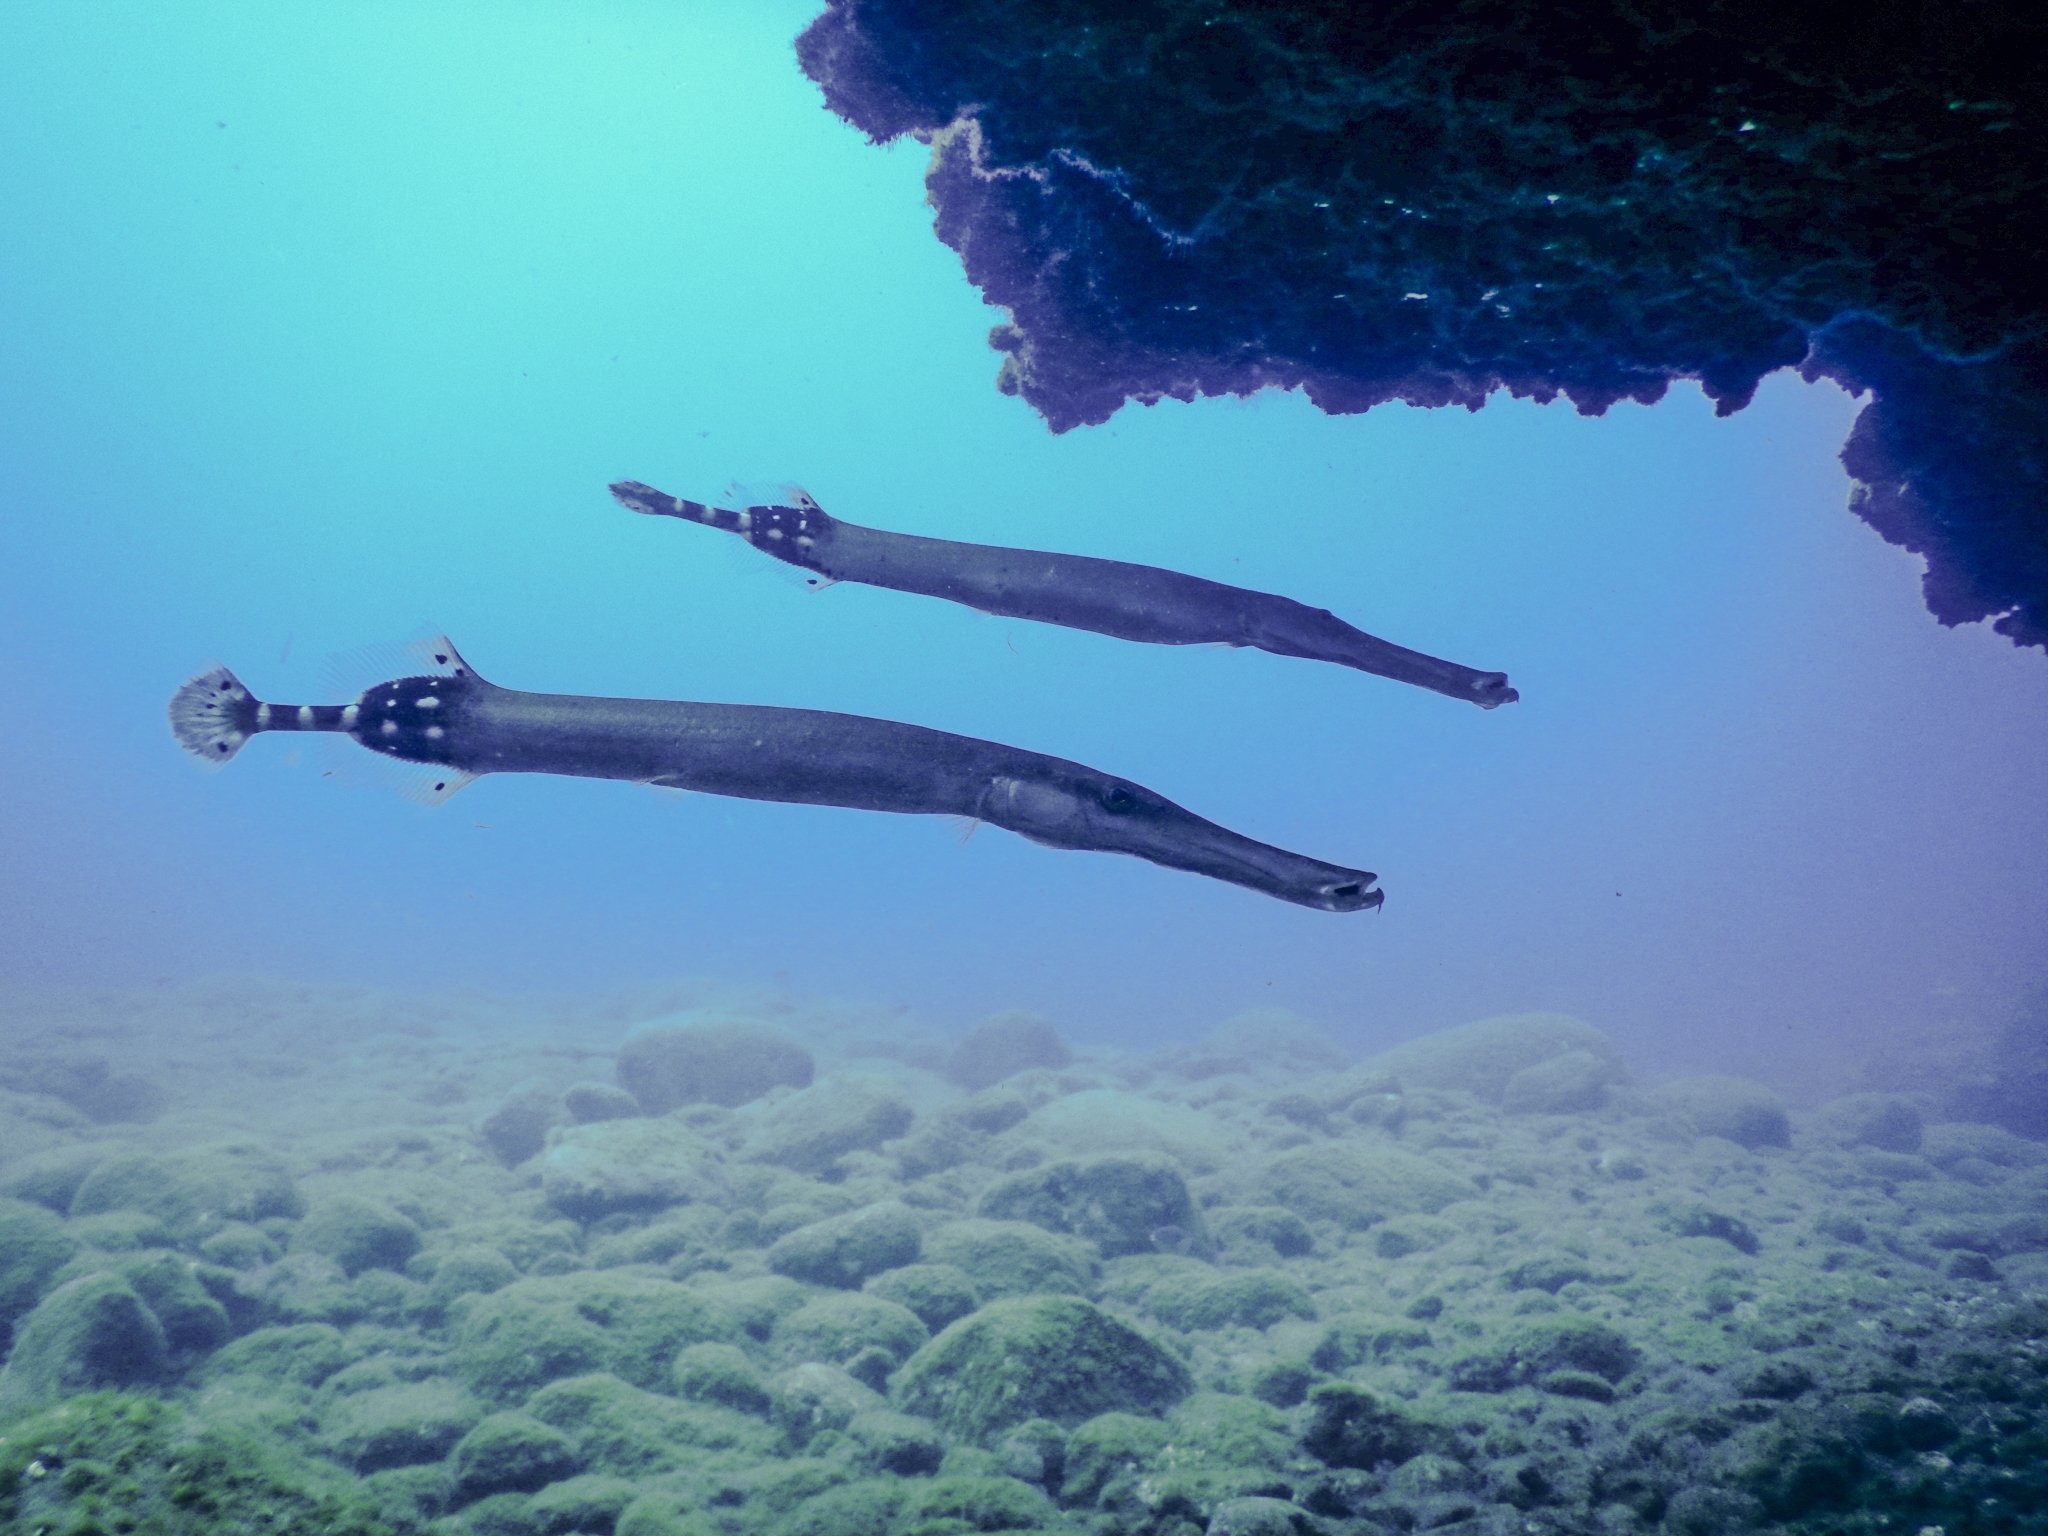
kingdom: Animalia
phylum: Chordata
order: Syngnathiformes
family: Aulostomidae
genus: Aulostomus
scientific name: Aulostomus strigosus
